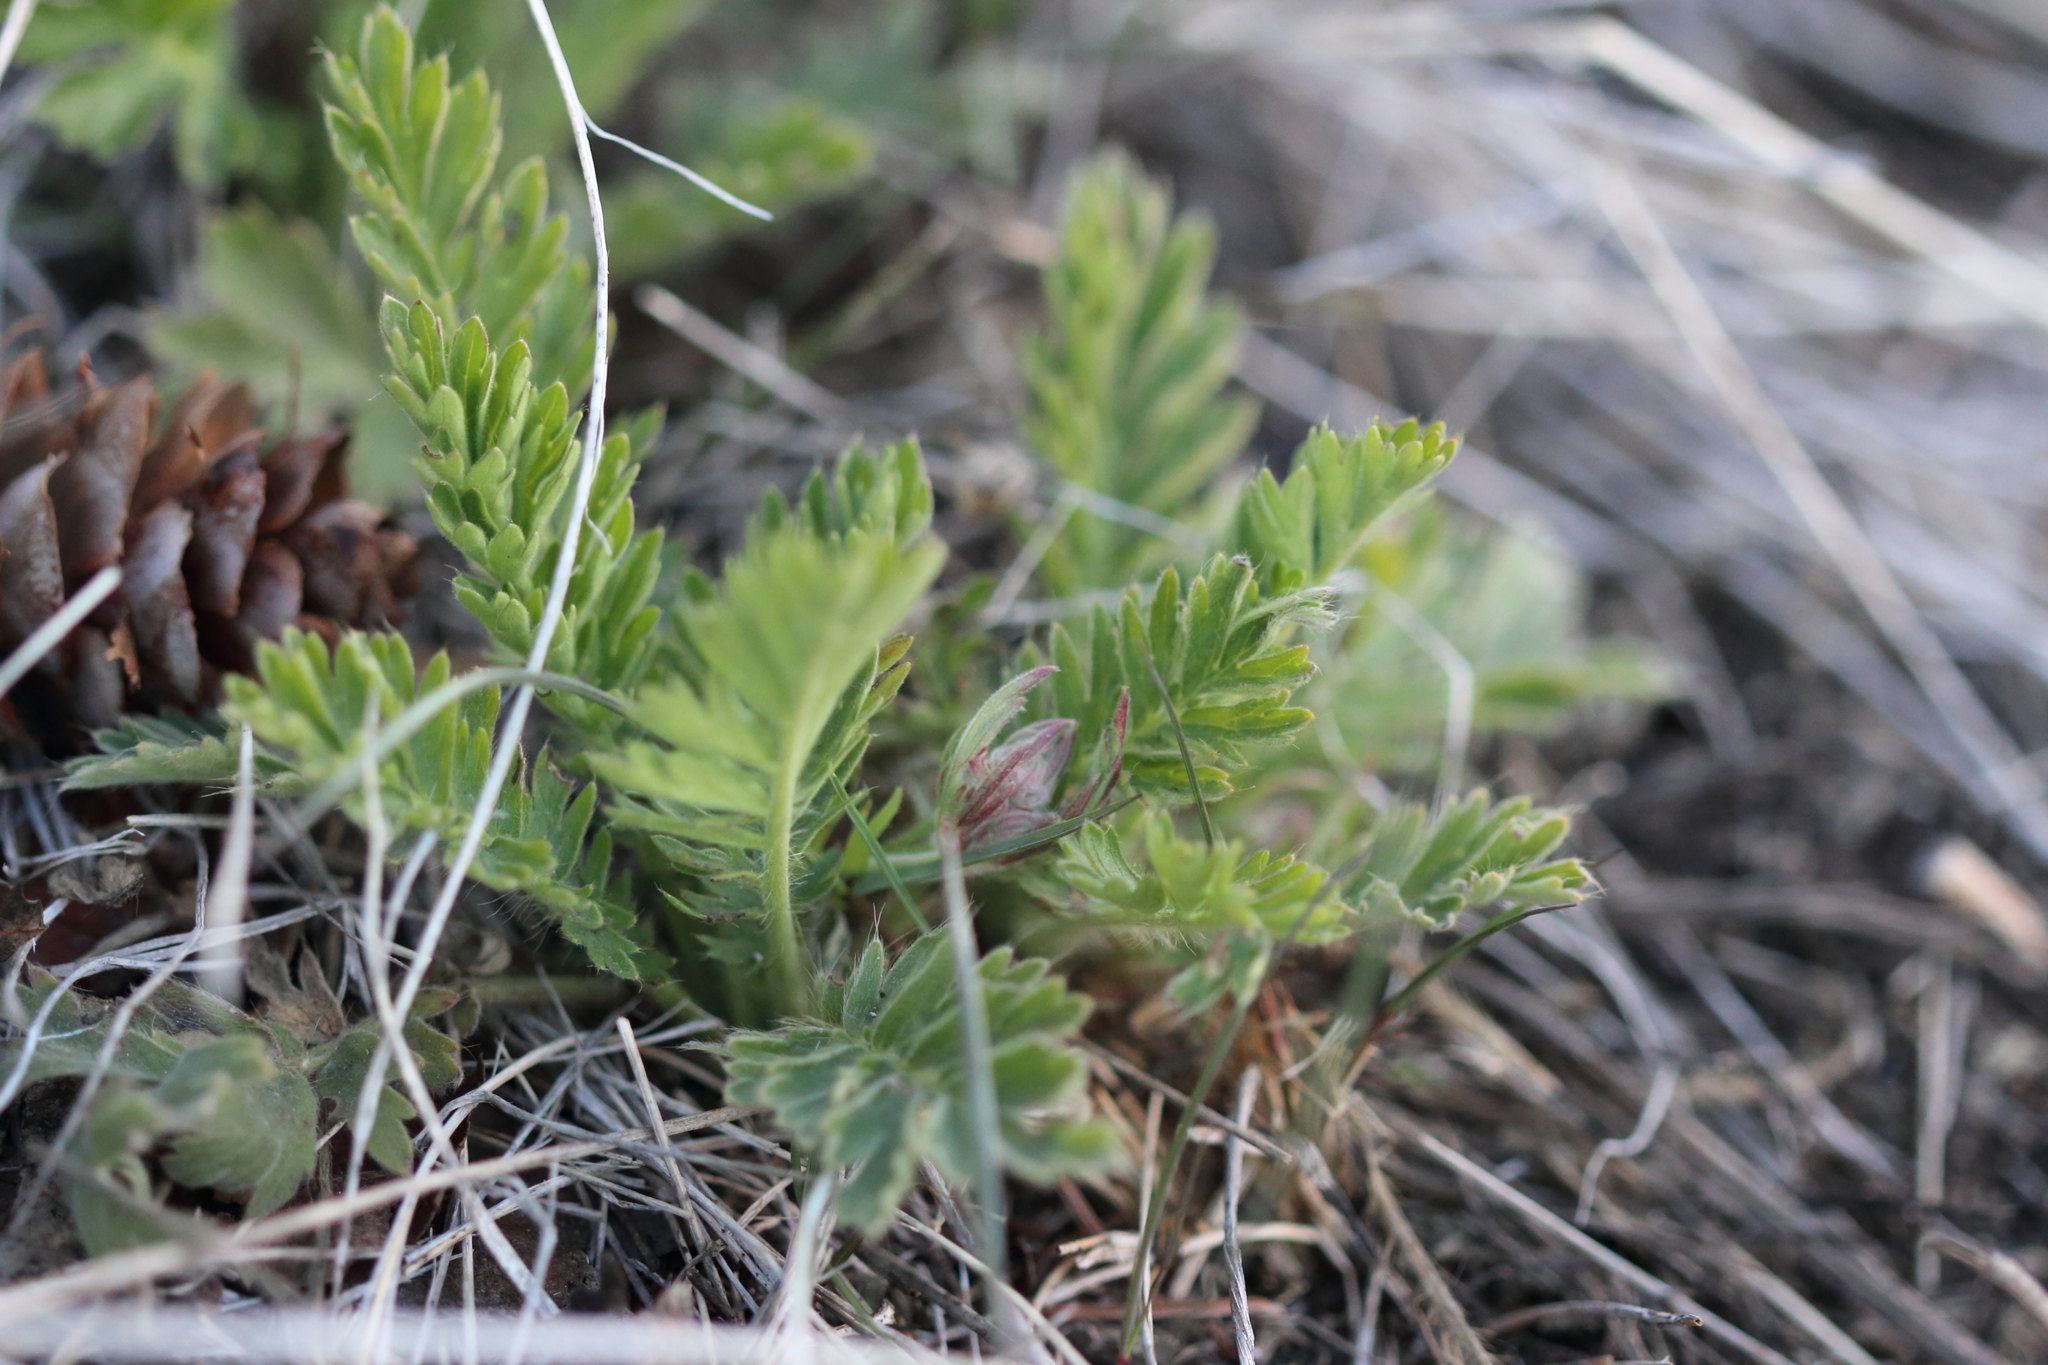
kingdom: Plantae
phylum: Tracheophyta
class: Magnoliopsida
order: Rosales
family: Rosaceae
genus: Geum
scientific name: Geum triflorum
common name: Old man's whiskers
